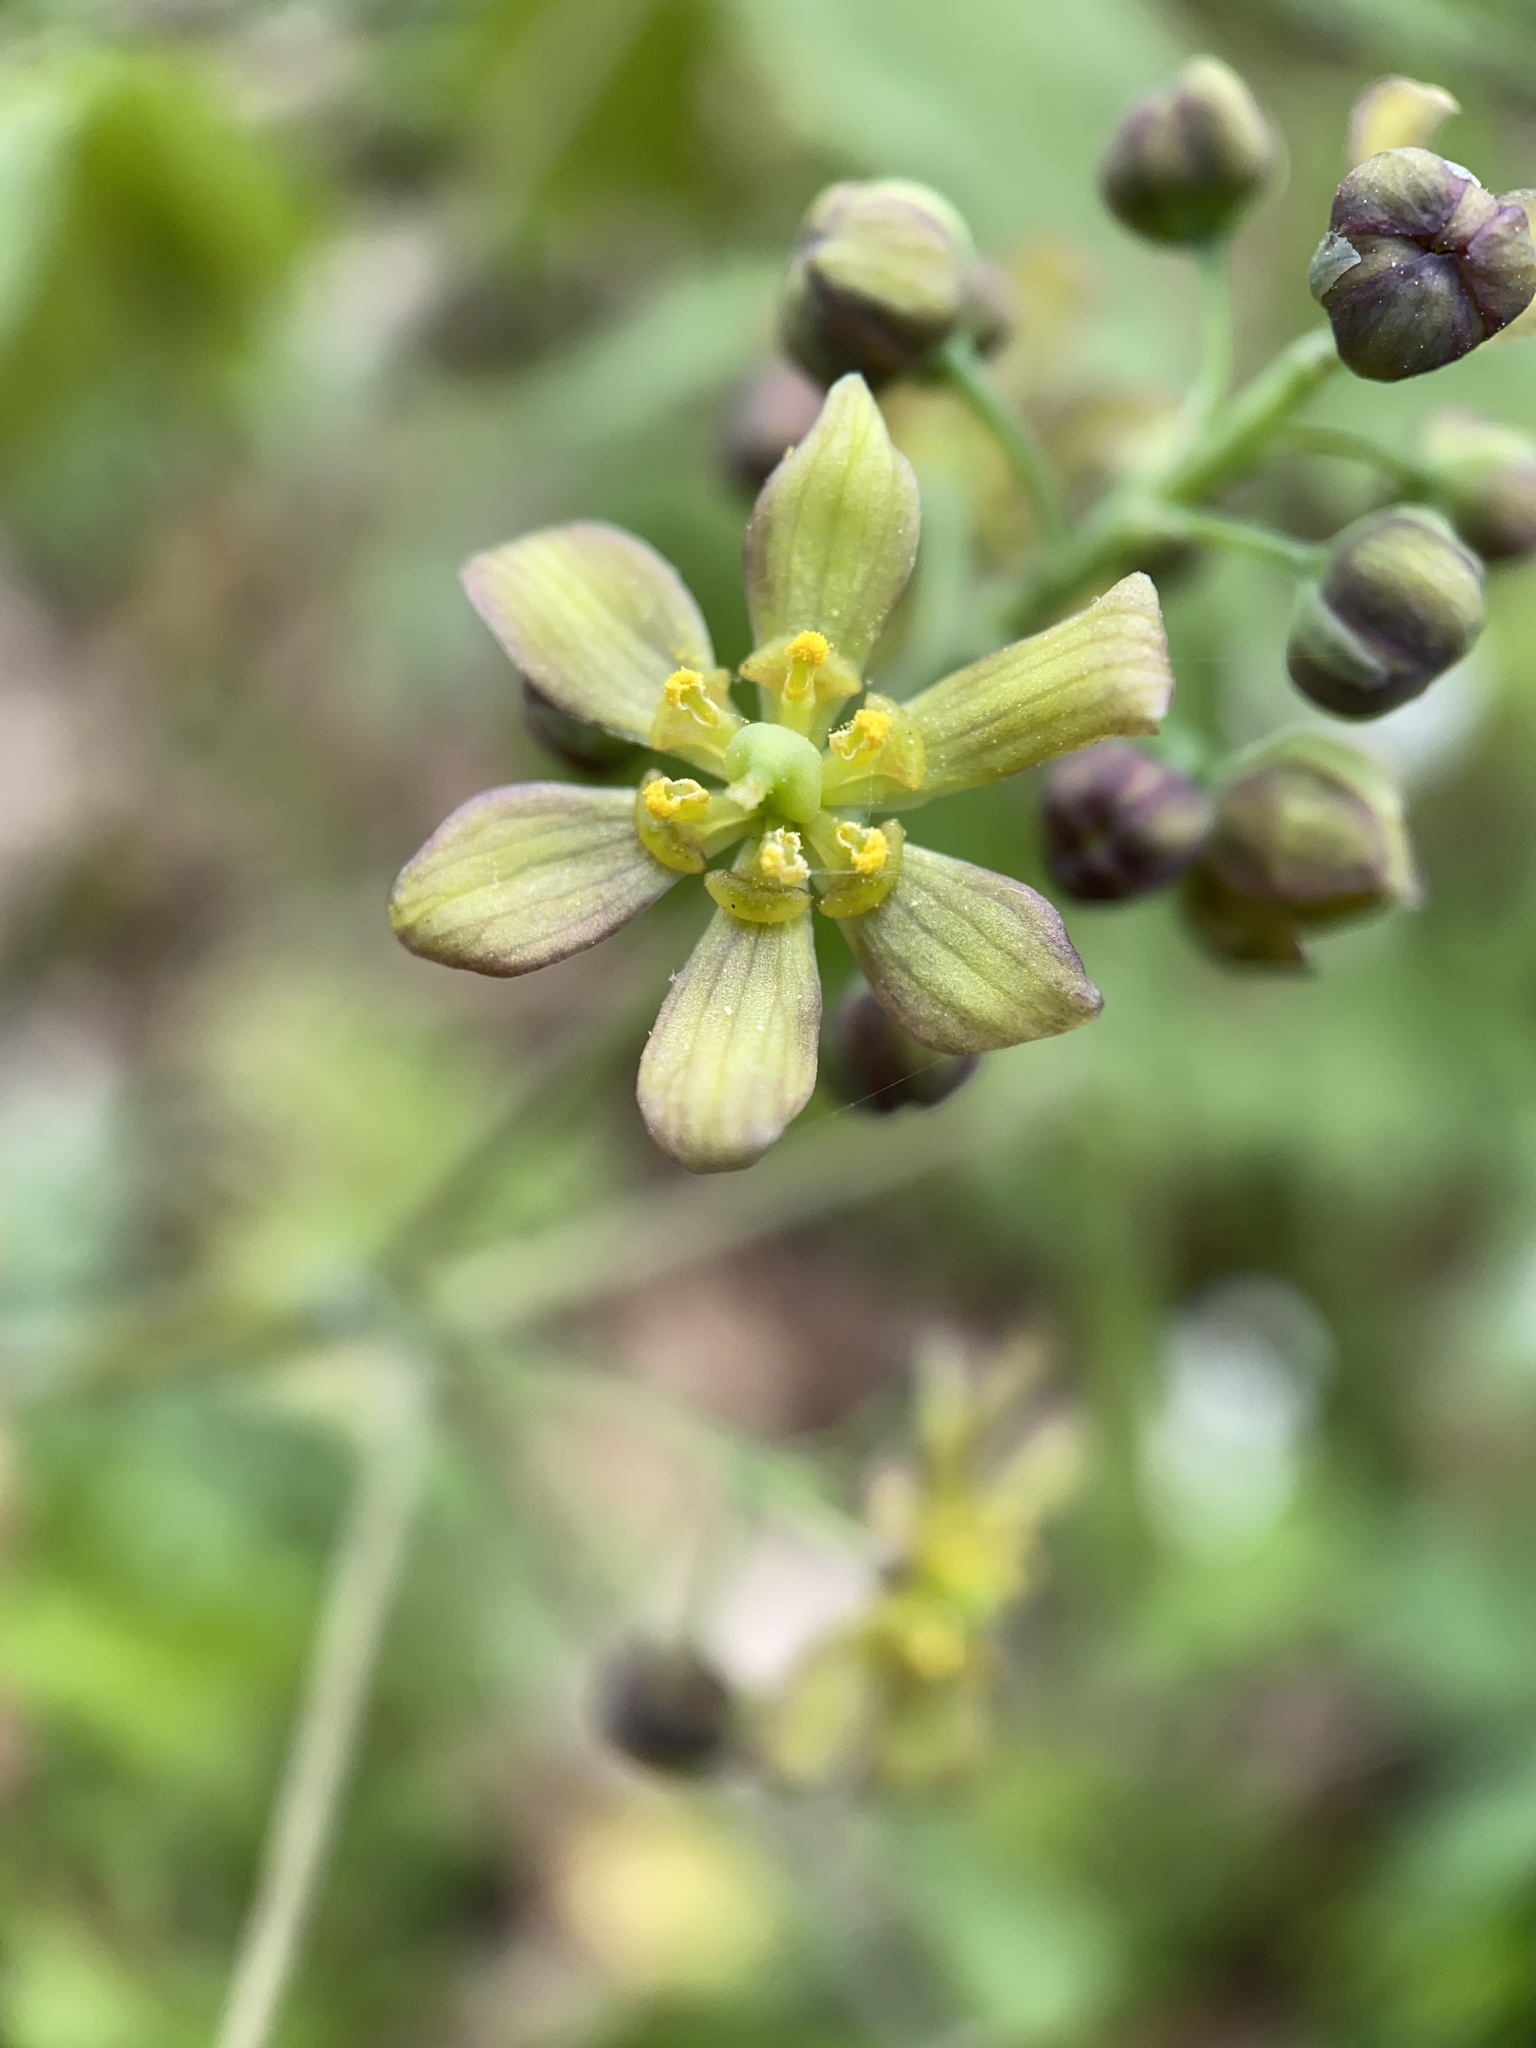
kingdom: Plantae
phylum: Tracheophyta
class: Magnoliopsida
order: Ranunculales
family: Berberidaceae
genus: Caulophyllum
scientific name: Caulophyllum thalictroides
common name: Blue cohosh
